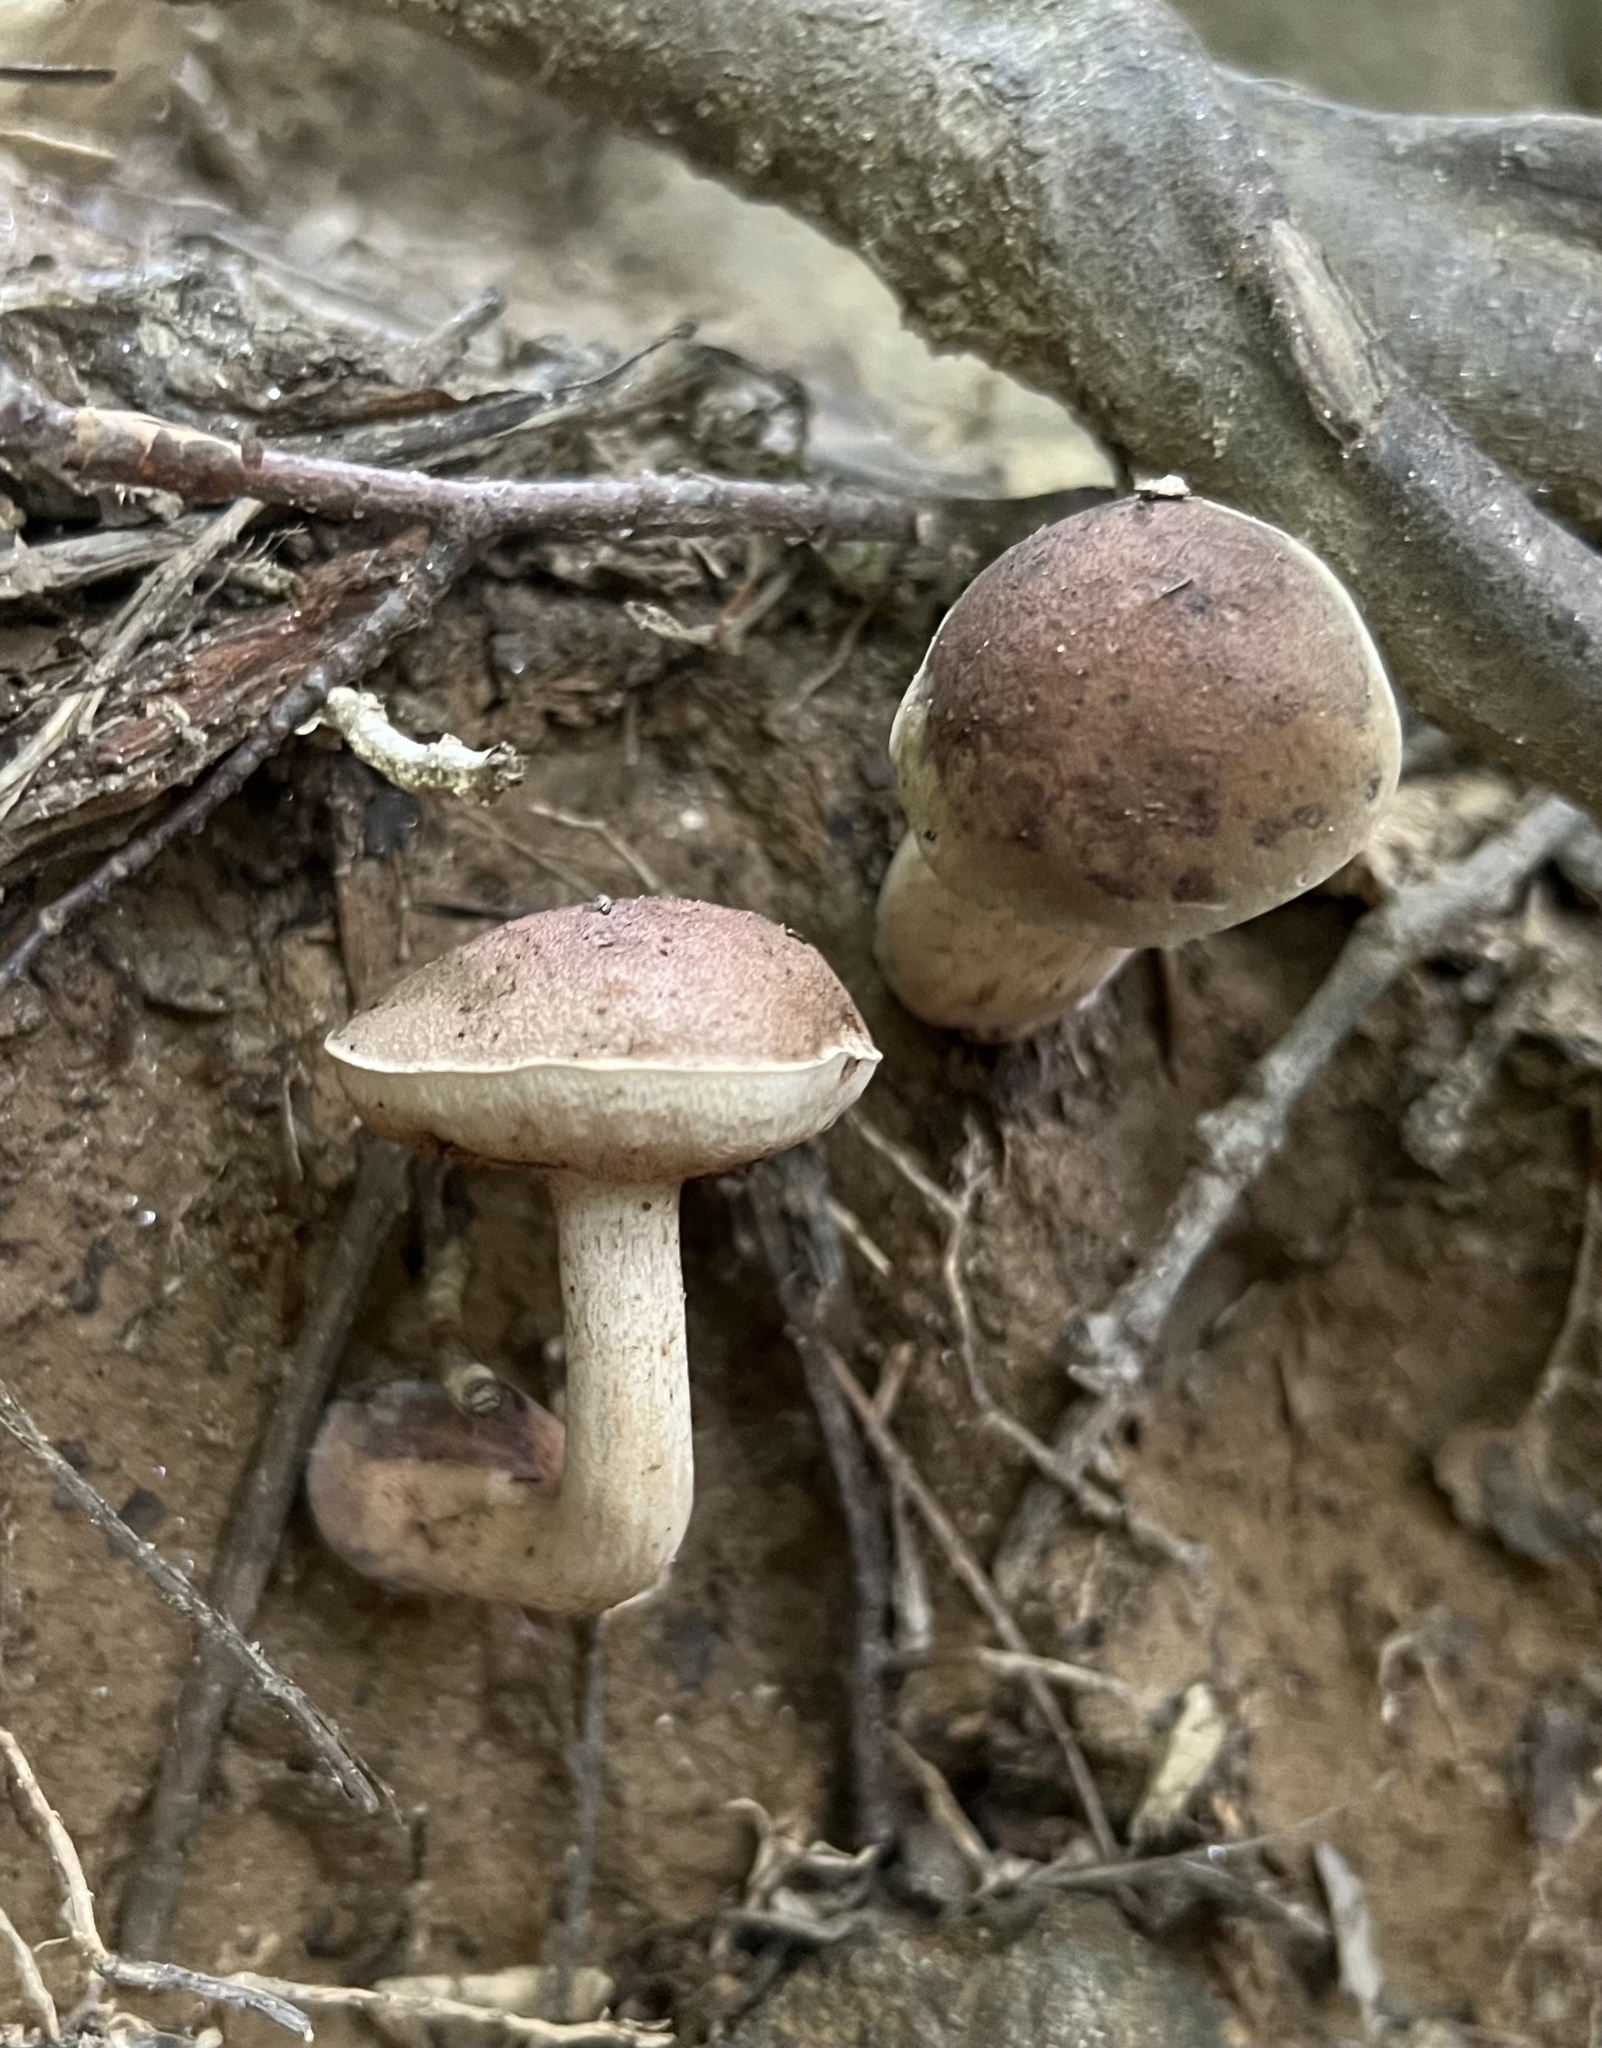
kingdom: Fungi
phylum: Basidiomycota
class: Agaricomycetes
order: Boletales
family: Boletaceae
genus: Tylopilus
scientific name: Tylopilus variobrunneus
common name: Brown-net bolete
